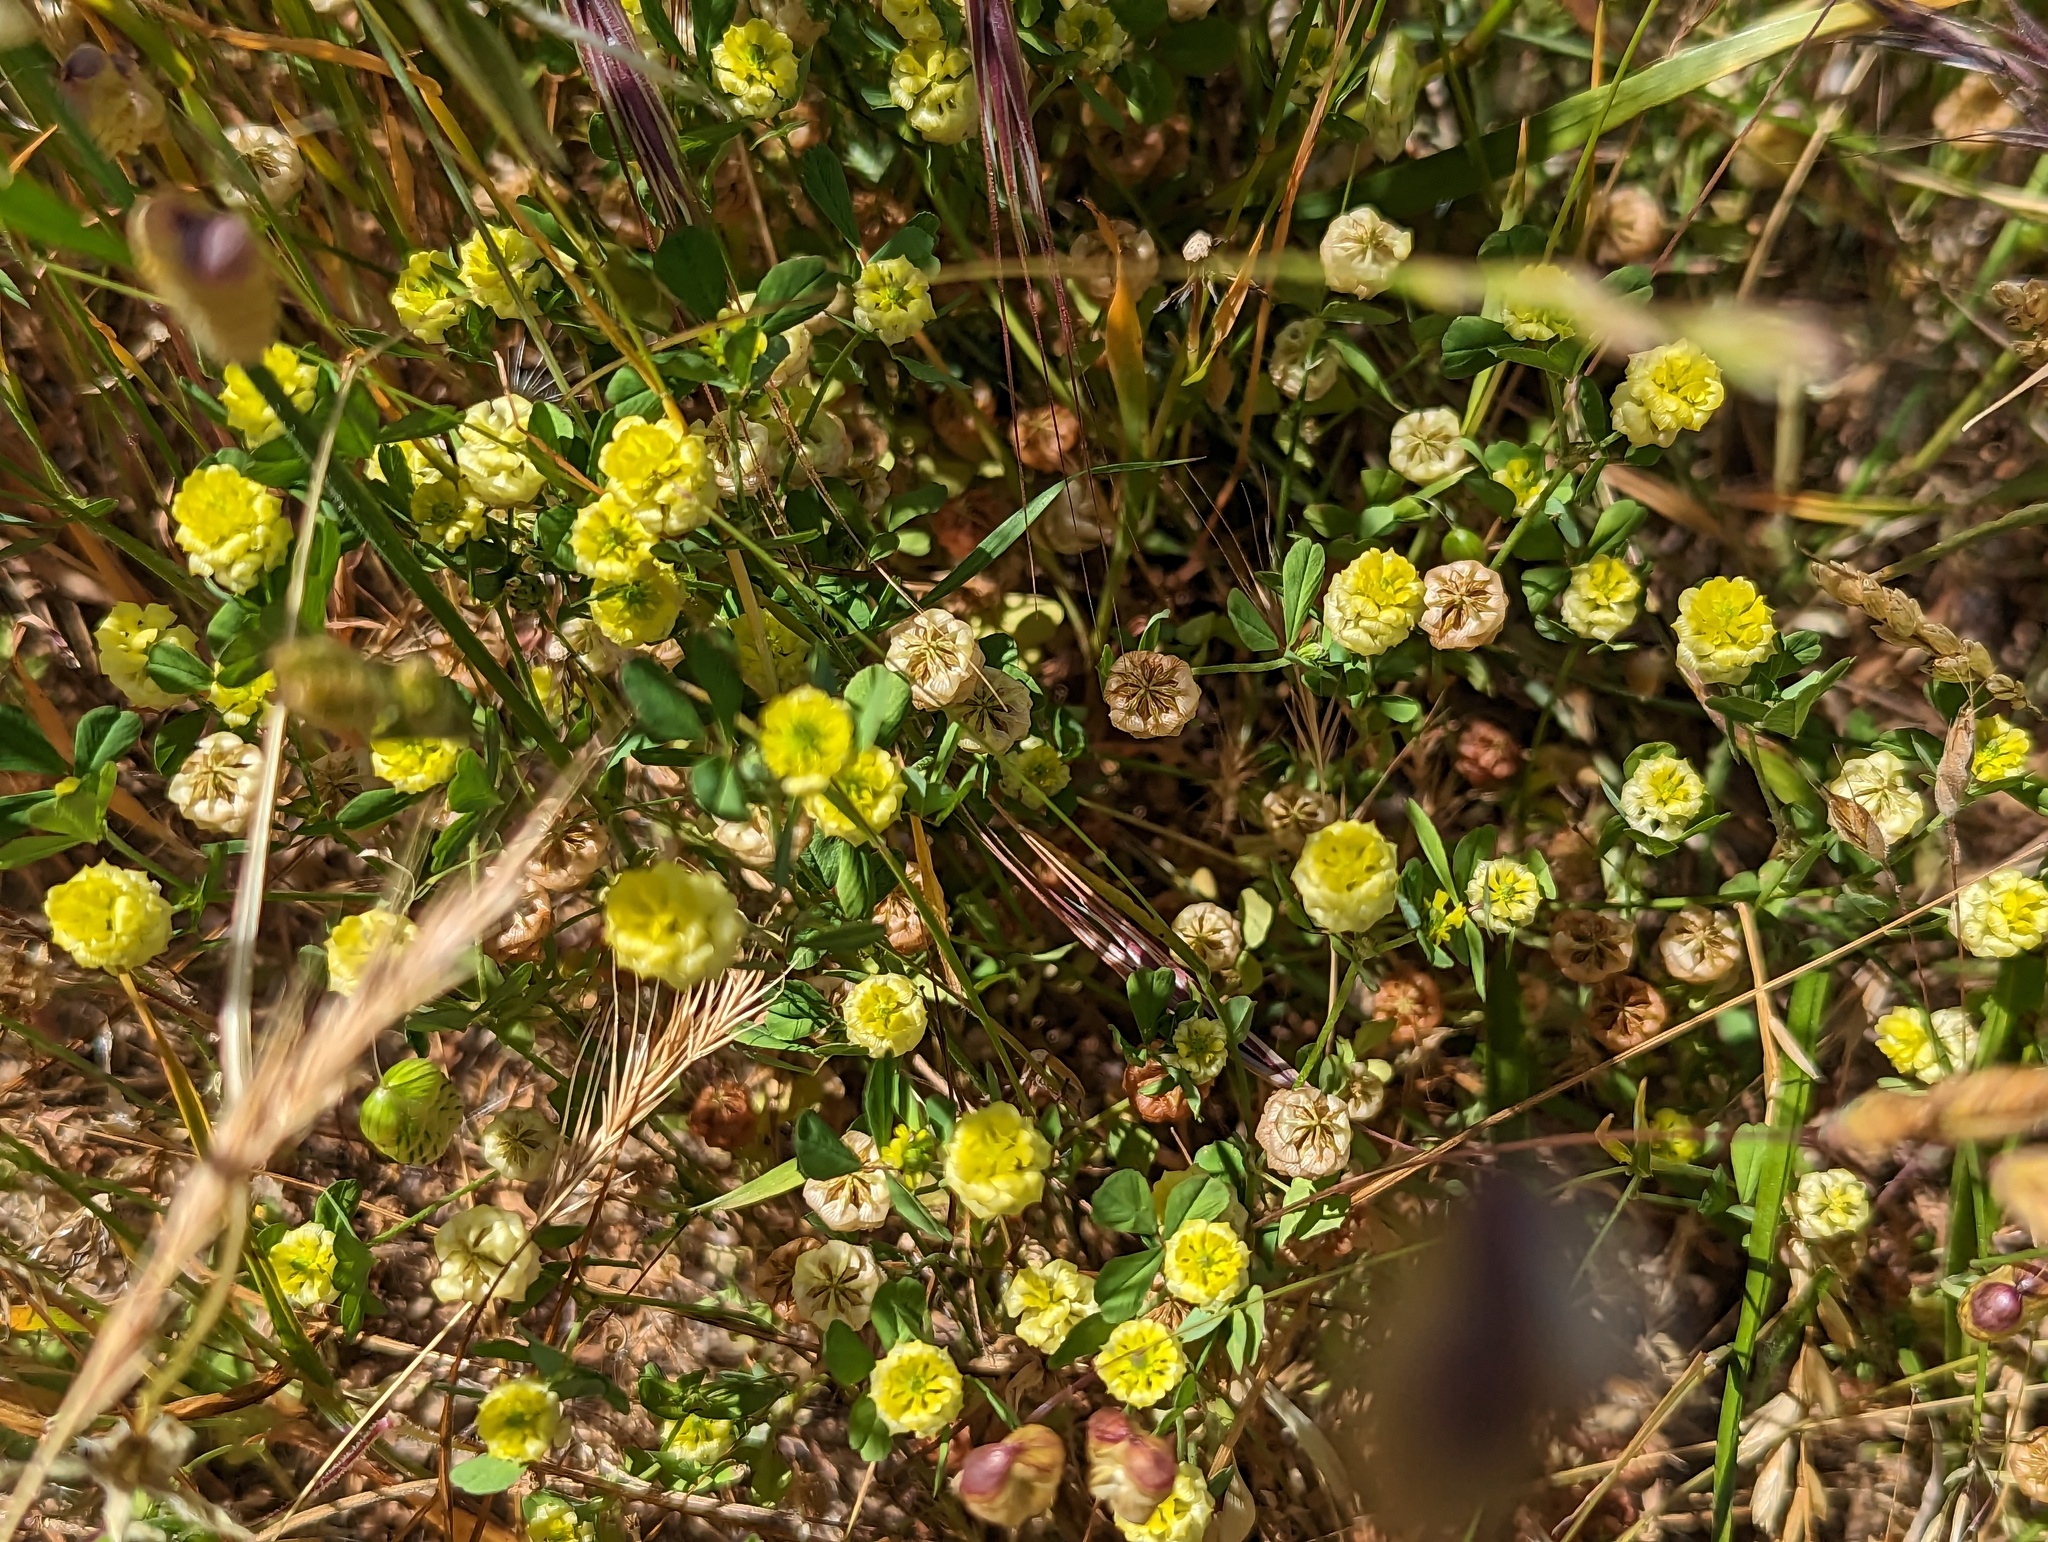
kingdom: Plantae
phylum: Tracheophyta
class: Magnoliopsida
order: Fabales
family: Fabaceae
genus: Trifolium
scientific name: Trifolium campestre
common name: Field clover
